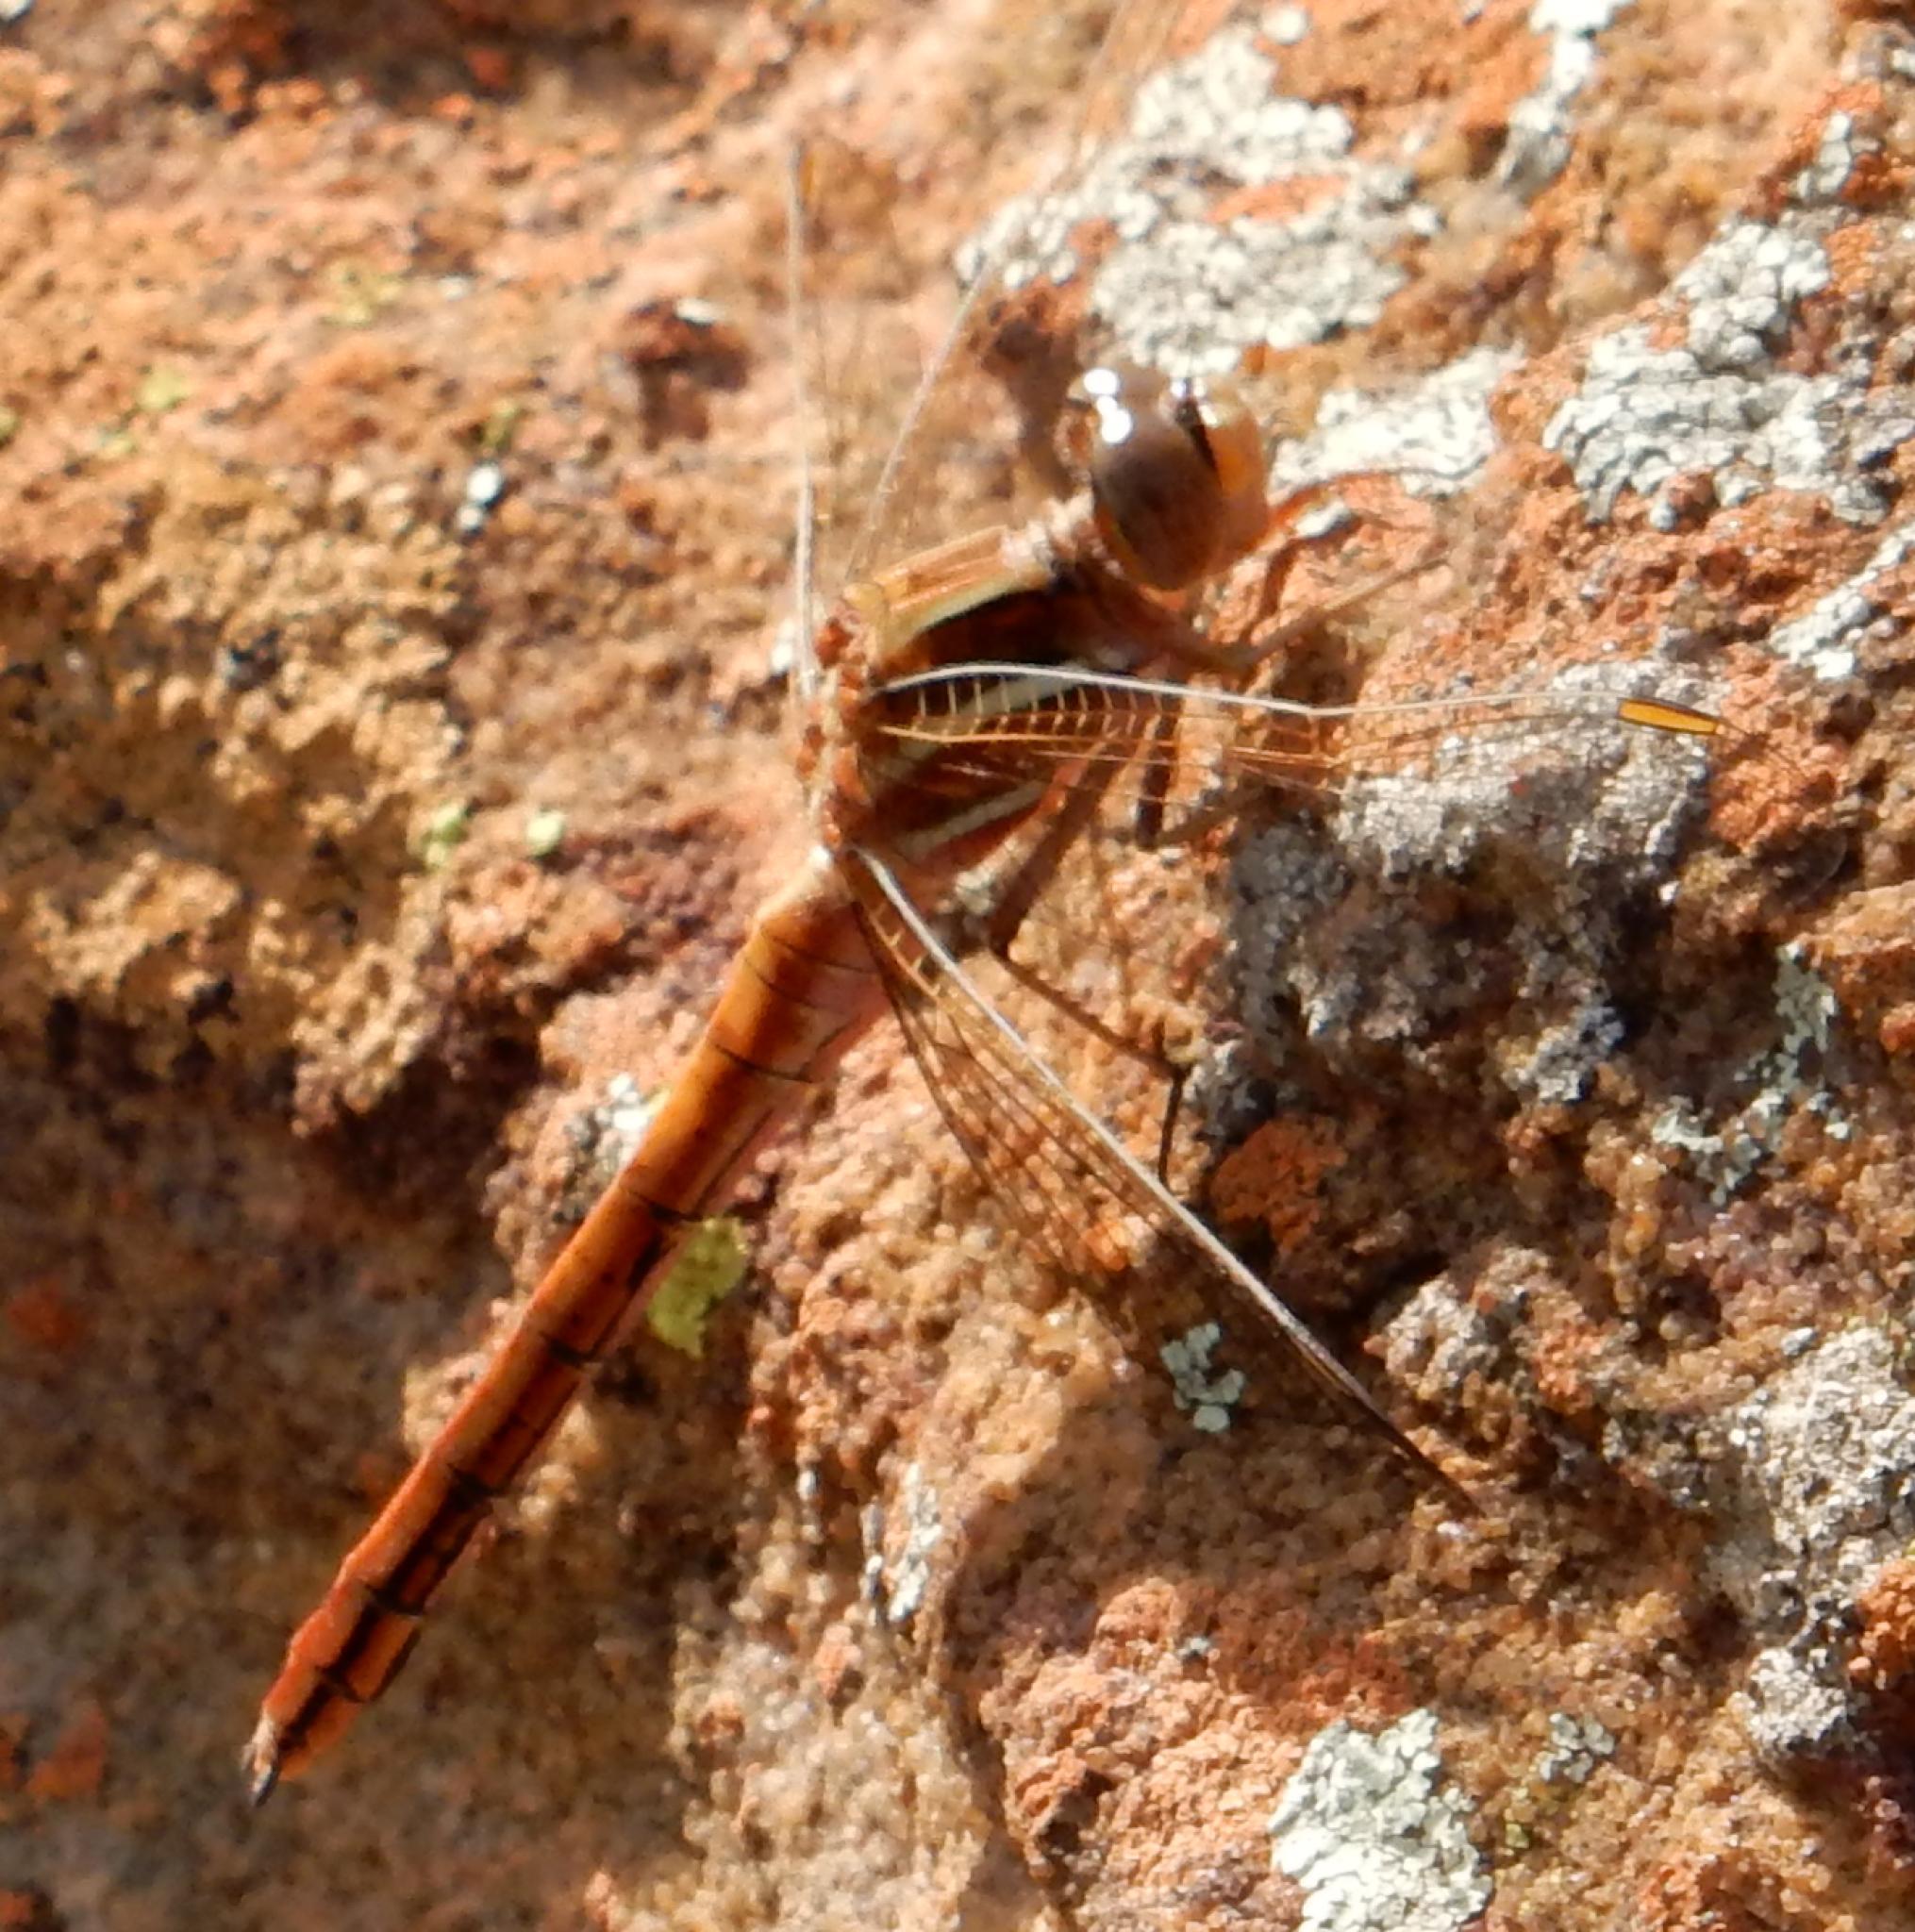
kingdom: Animalia
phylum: Arthropoda
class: Insecta
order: Odonata
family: Libellulidae
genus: Orthetrum
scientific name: Orthetrum caffrum
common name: Two-striped skimmer
